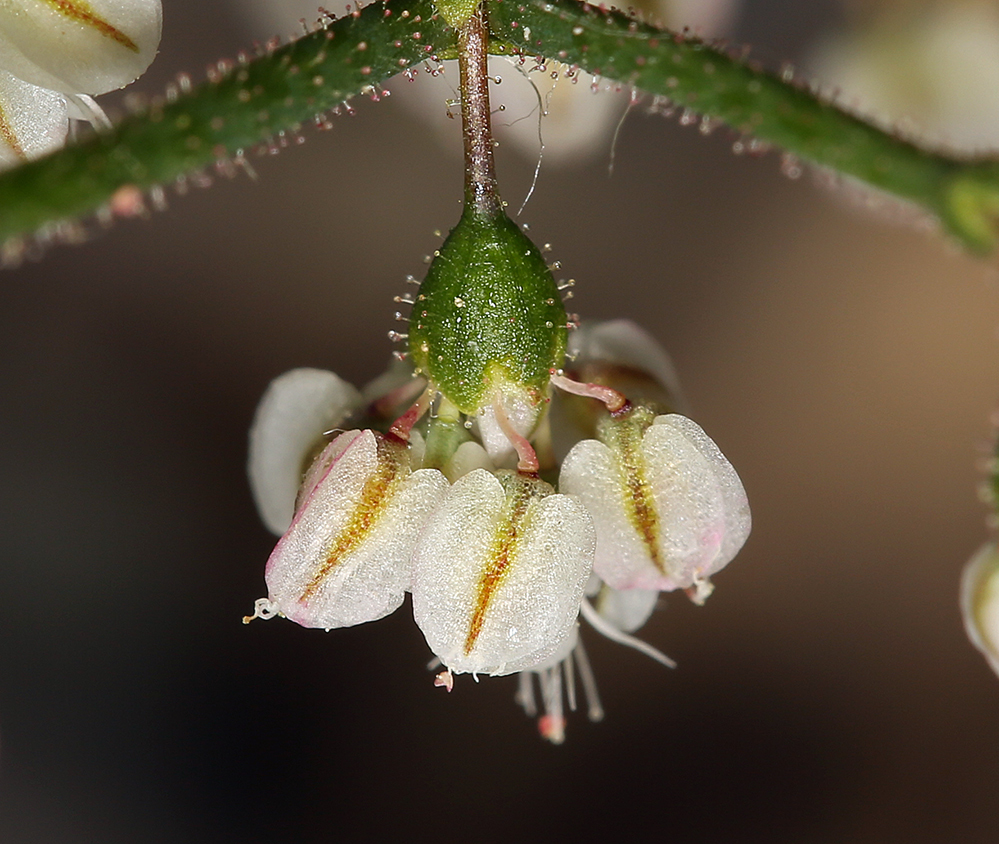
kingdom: Plantae
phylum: Tracheophyta
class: Magnoliopsida
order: Caryophyllales
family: Polygonaceae
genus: Eriogonum
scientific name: Eriogonum brachypodum
